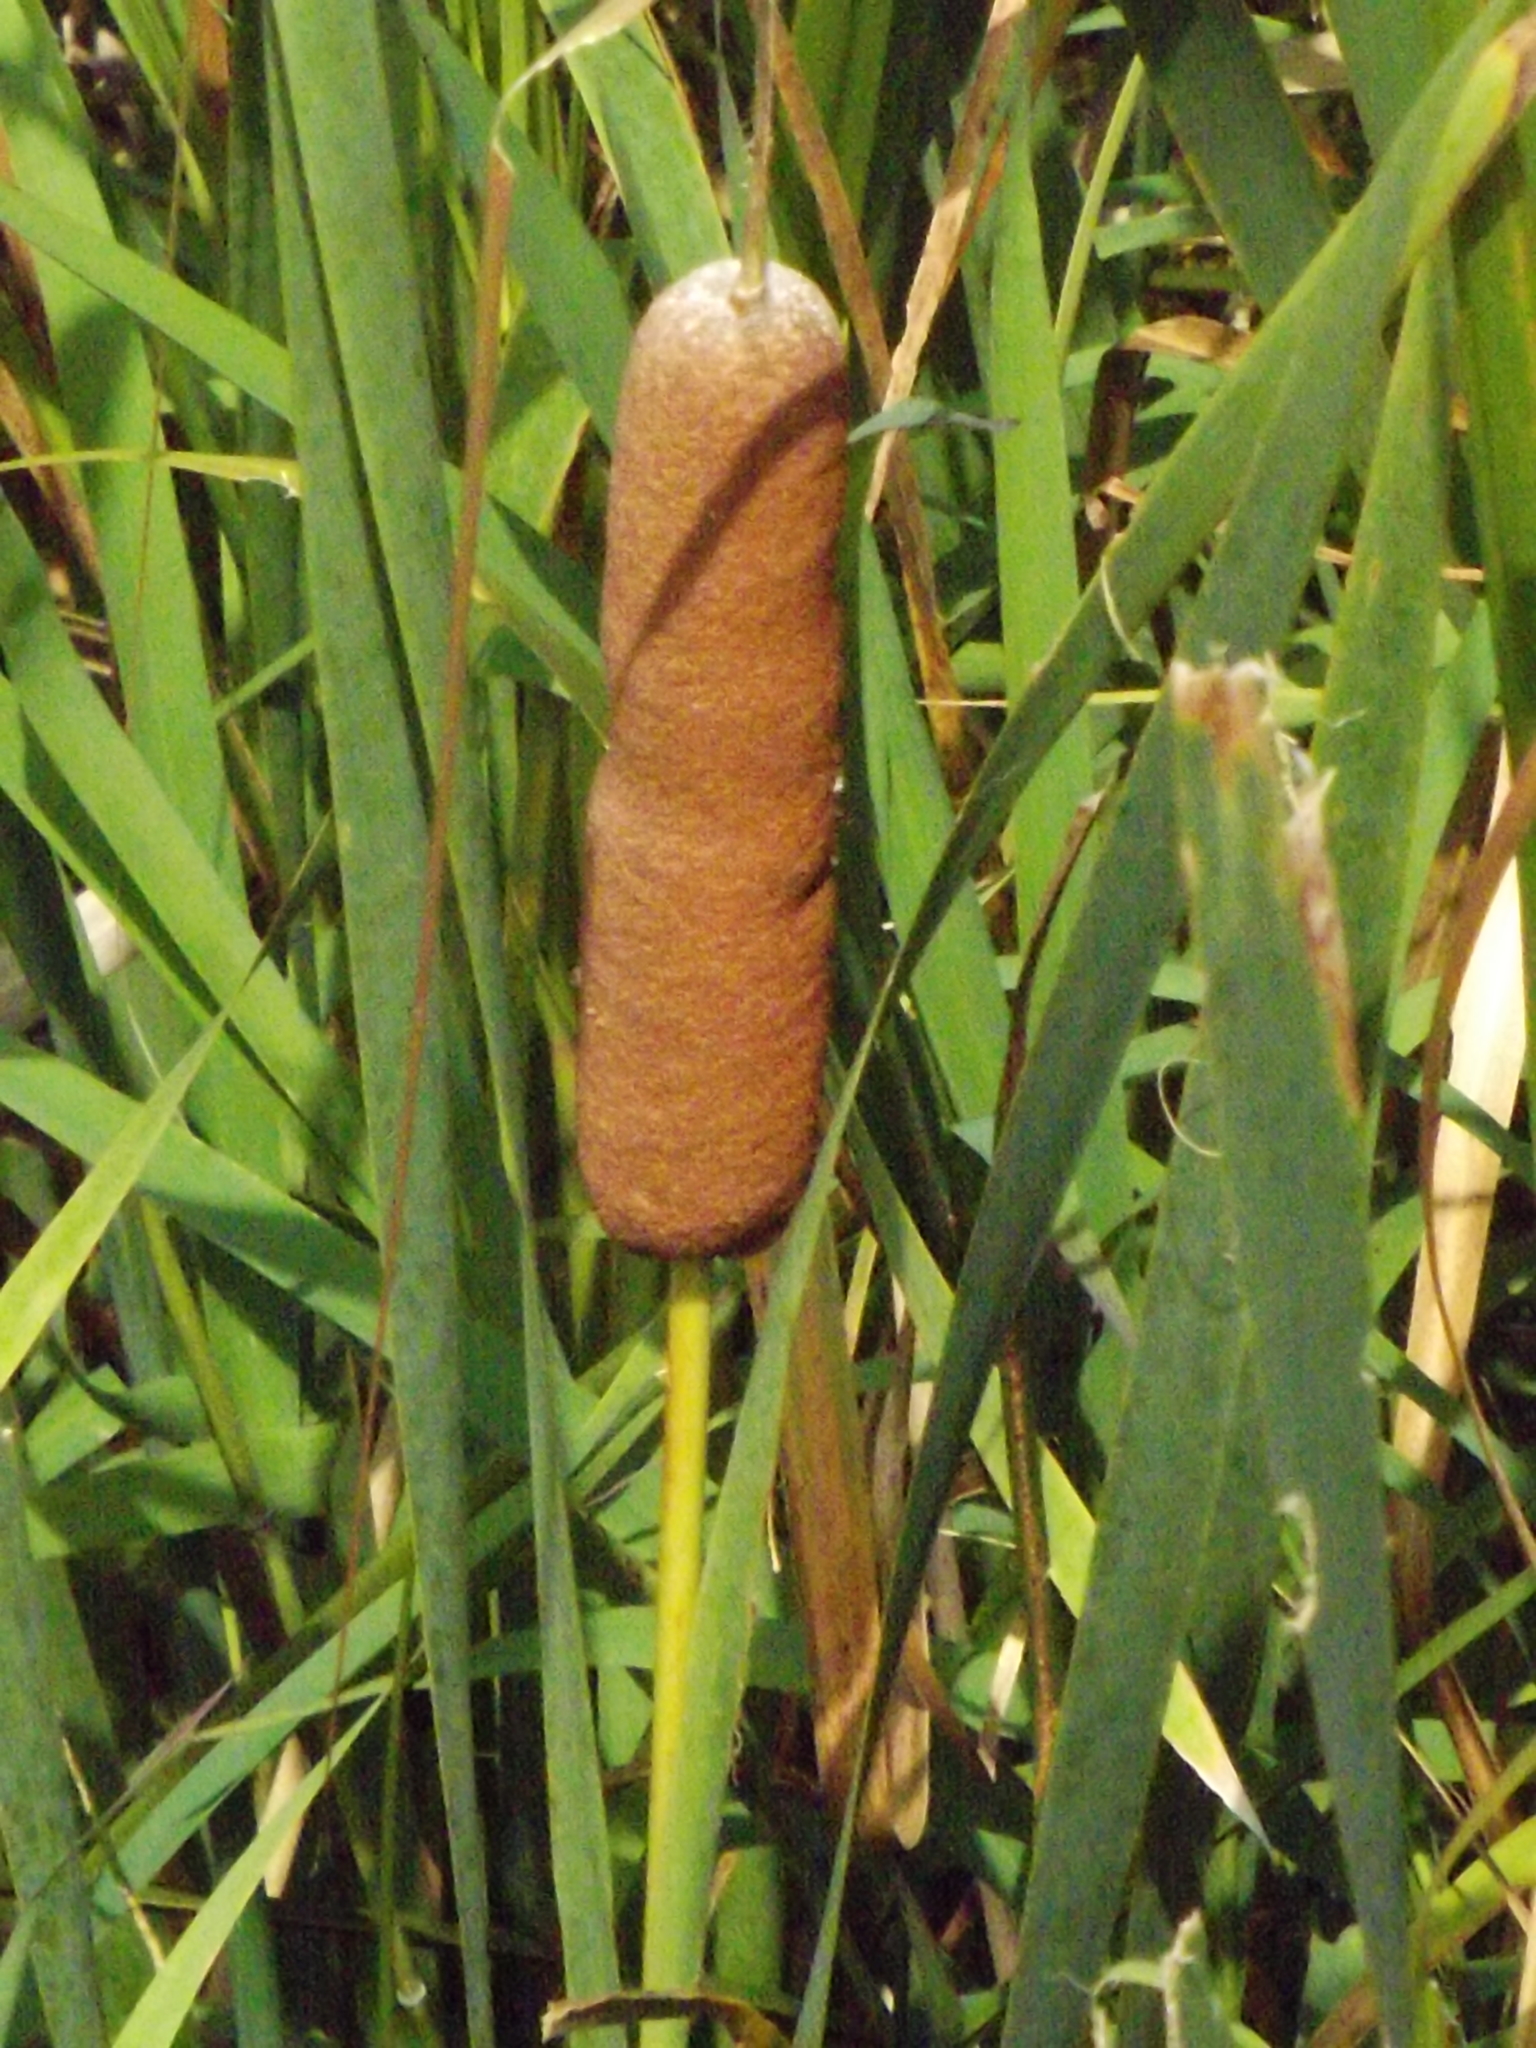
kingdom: Plantae
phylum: Tracheophyta
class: Liliopsida
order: Poales
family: Typhaceae
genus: Typha
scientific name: Typha latifolia
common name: Broadleaf cattail
